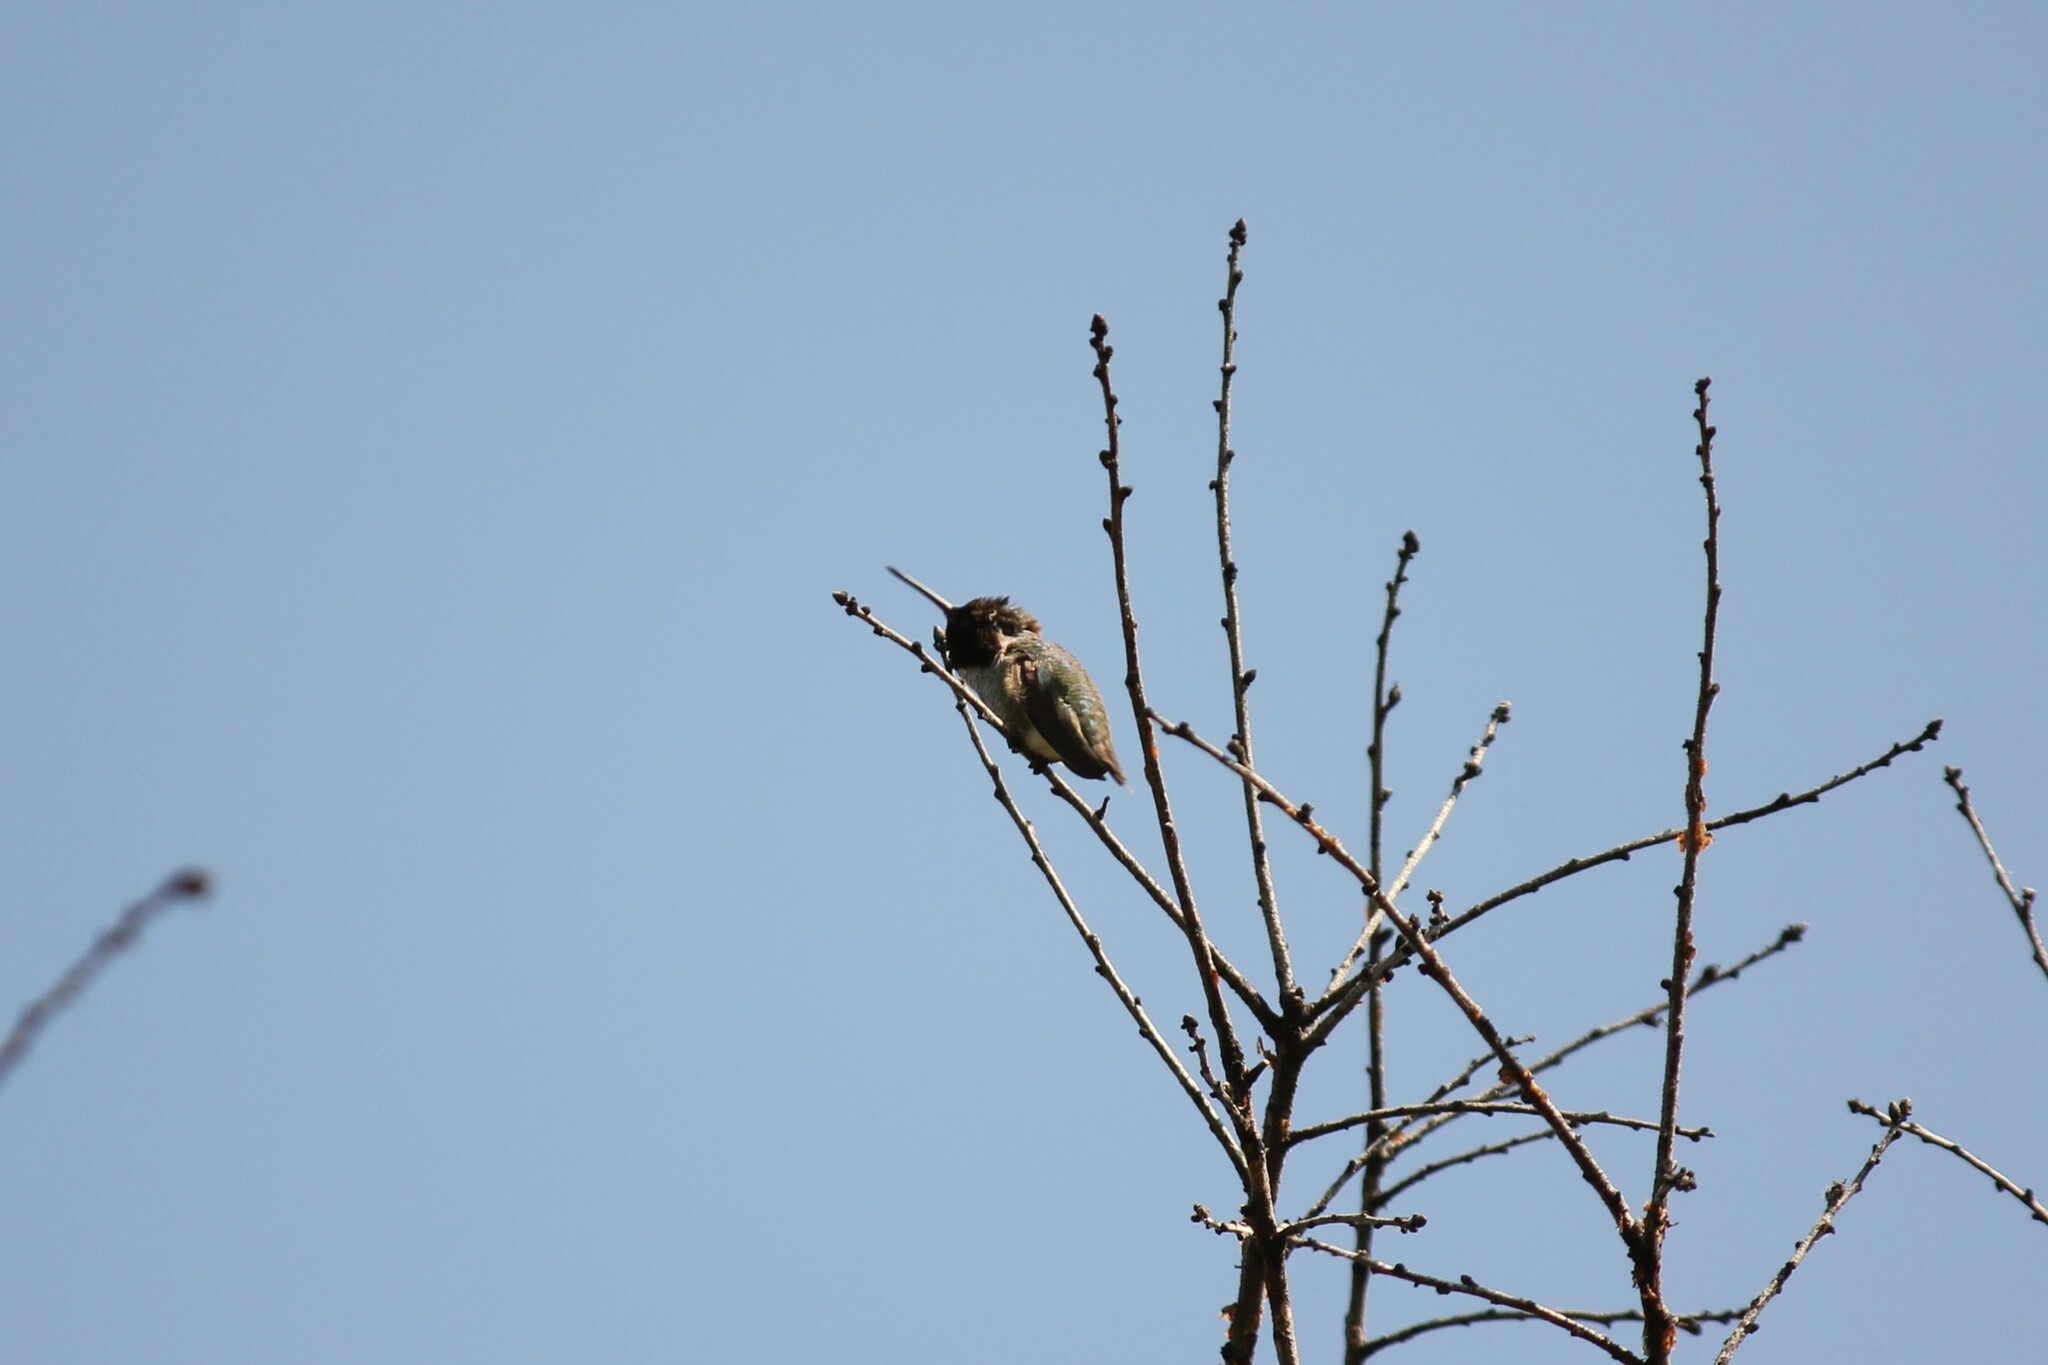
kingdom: Animalia
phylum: Chordata
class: Aves
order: Apodiformes
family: Trochilidae
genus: Calypte
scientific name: Calypte anna
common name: Anna's hummingbird
